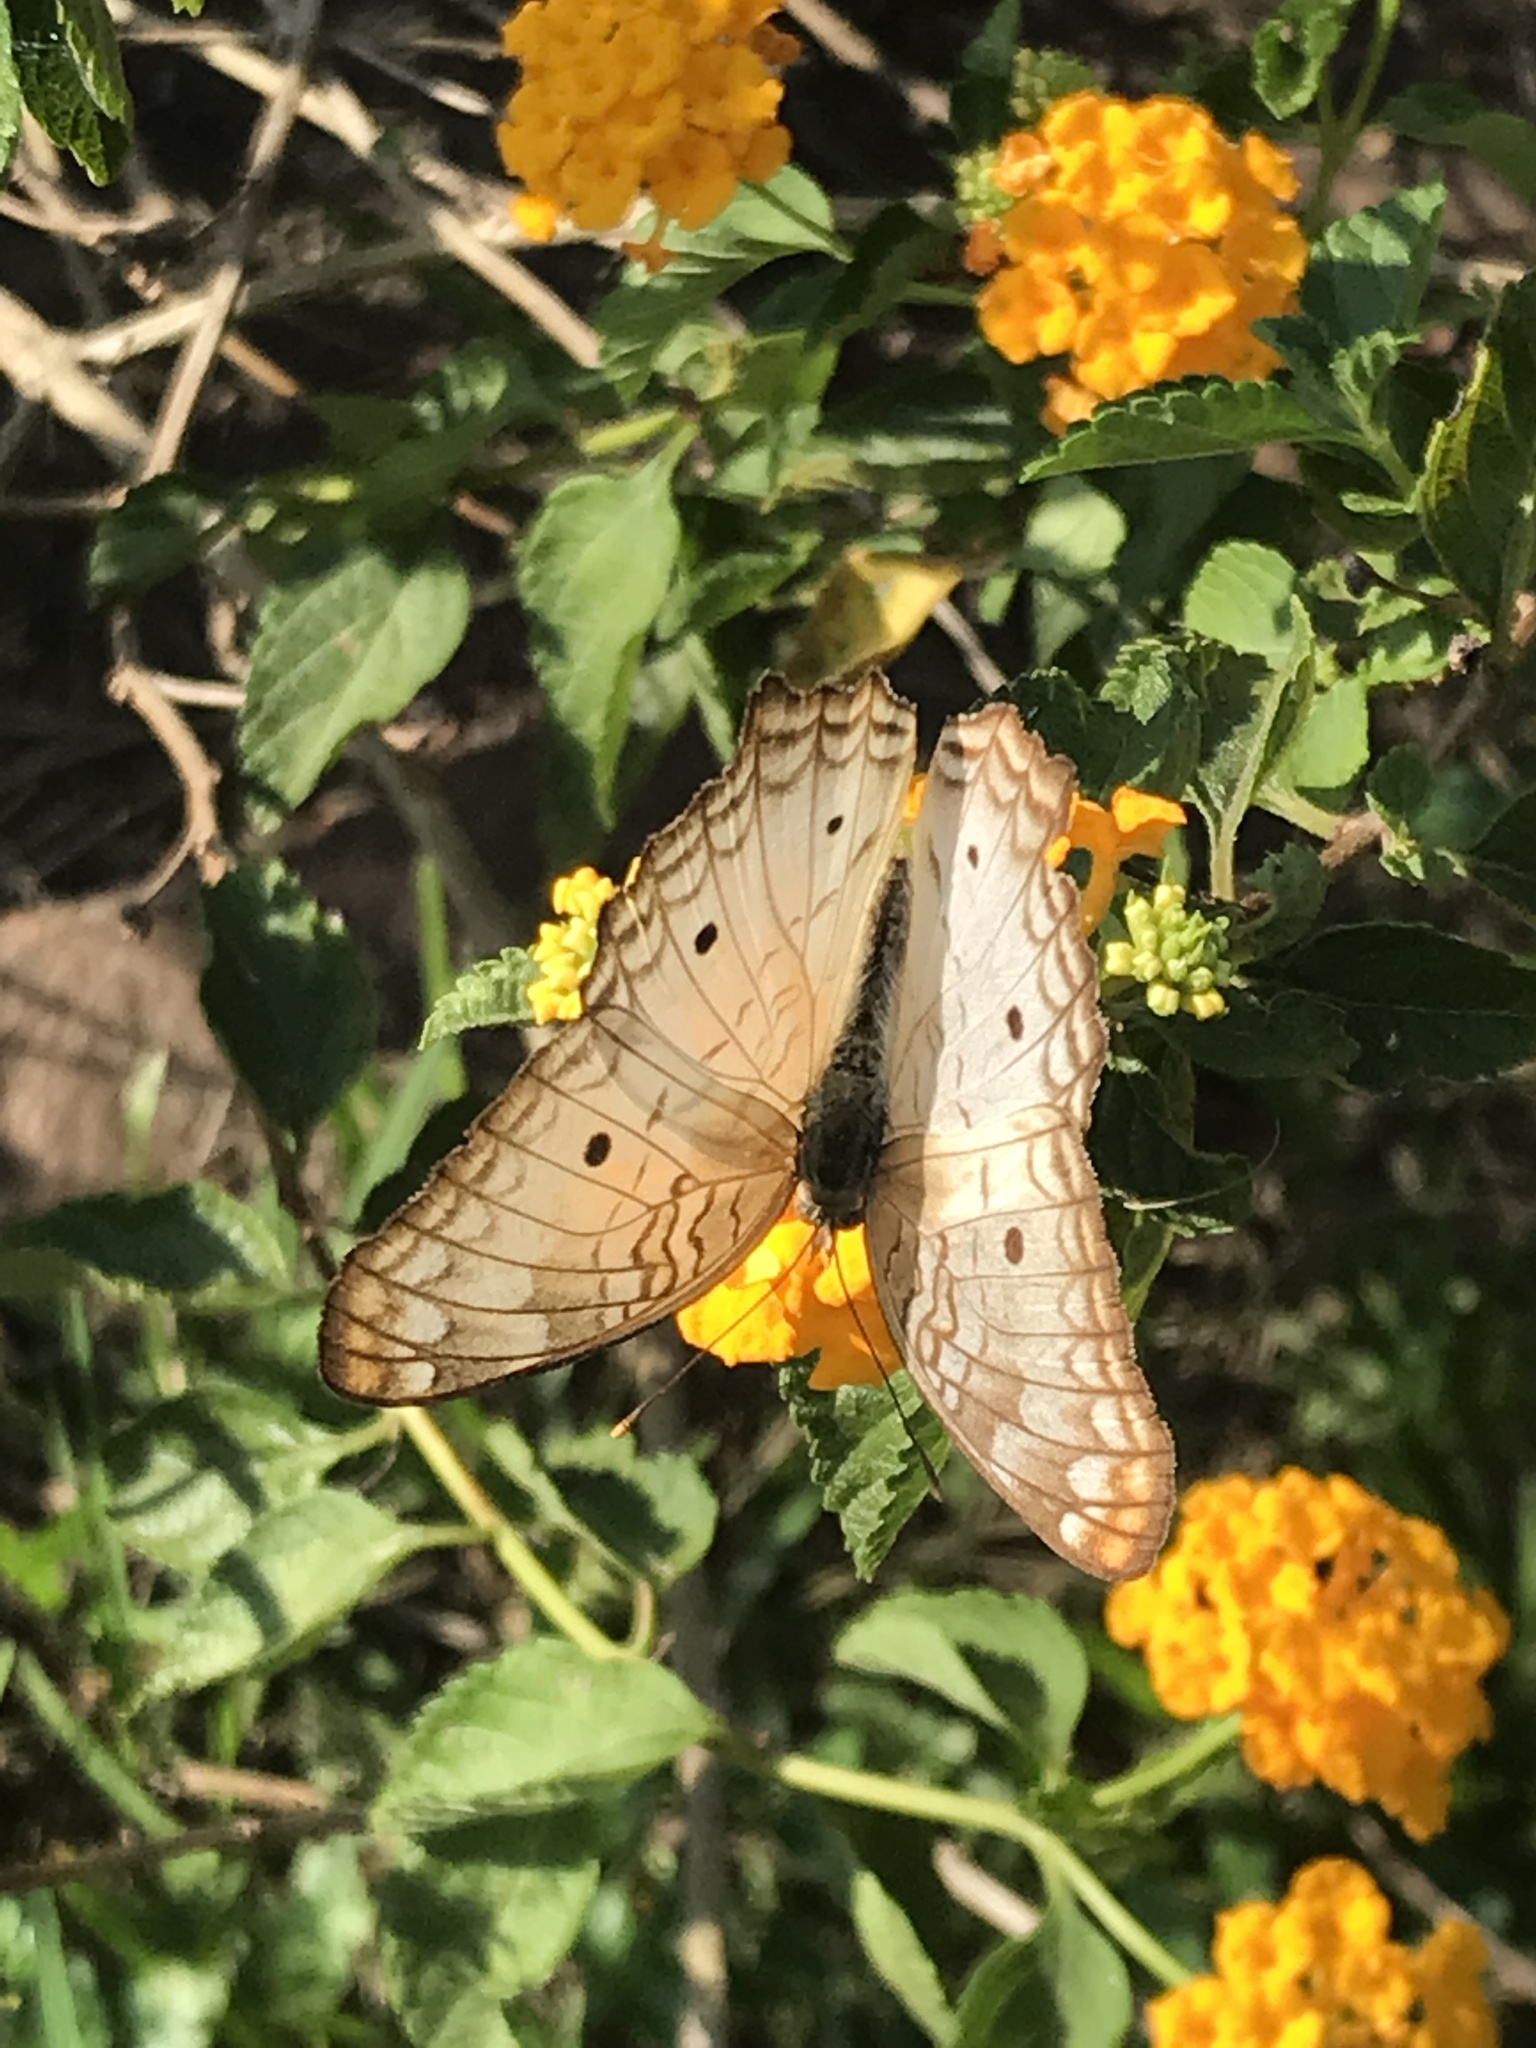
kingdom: Animalia
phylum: Arthropoda
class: Insecta
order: Lepidoptera
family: Nymphalidae
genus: Anartia
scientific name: Anartia jatrophae
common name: White peacock
